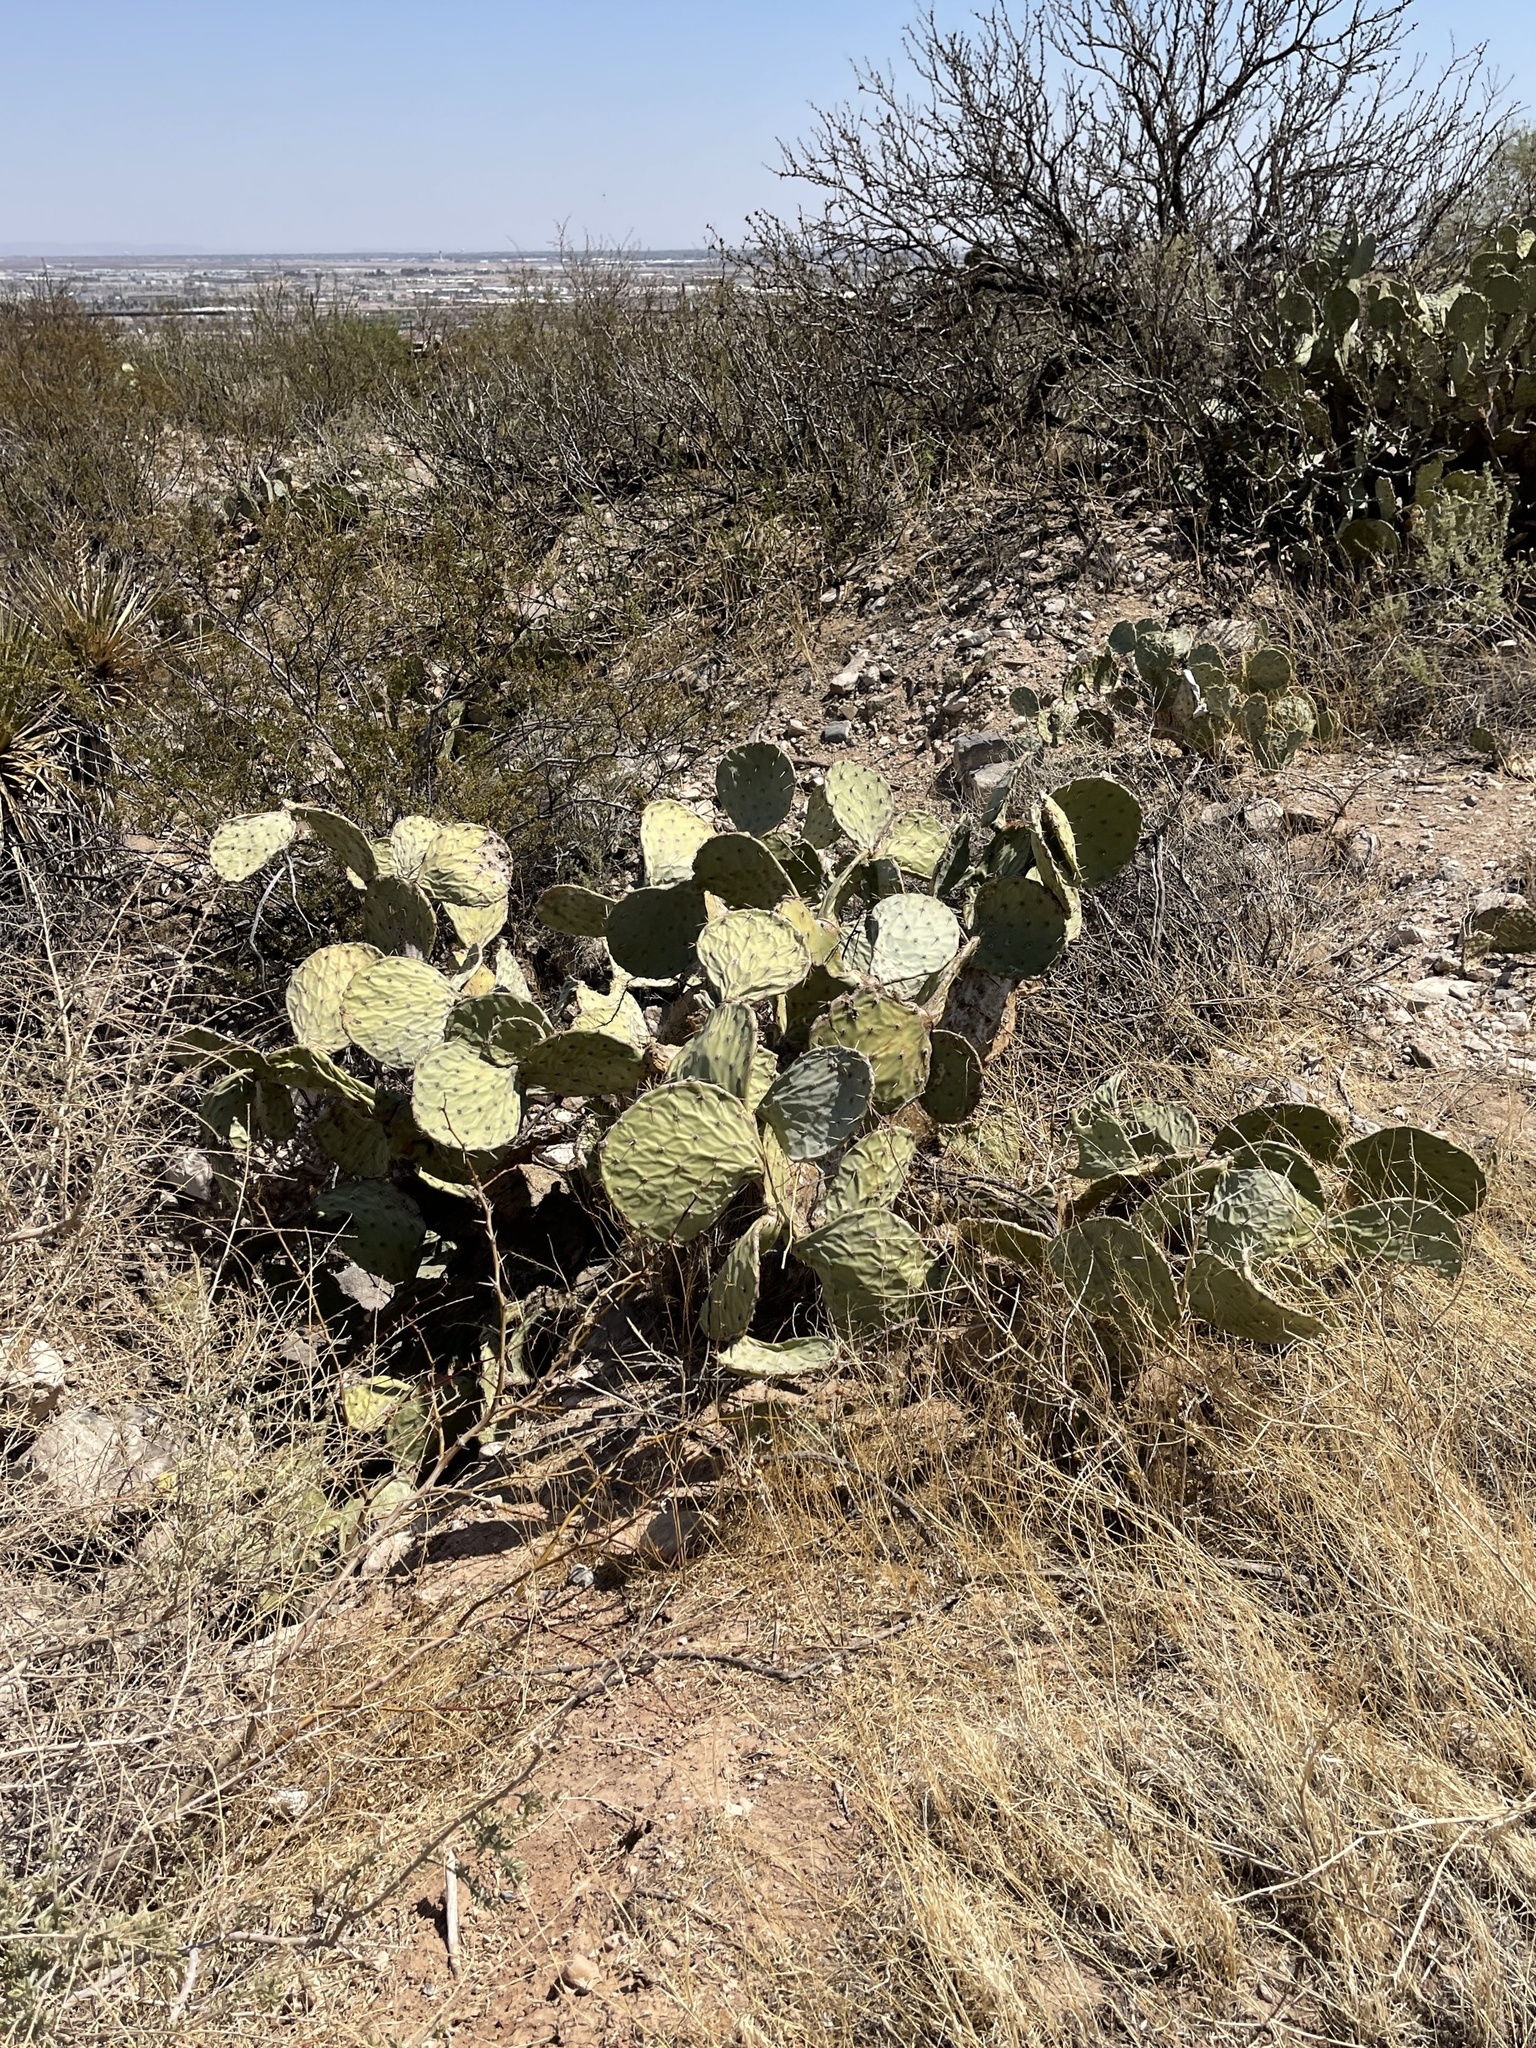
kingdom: Plantae
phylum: Tracheophyta
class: Magnoliopsida
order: Caryophyllales
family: Cactaceae
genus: Opuntia
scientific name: Opuntia engelmannii
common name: Cactus-apple
